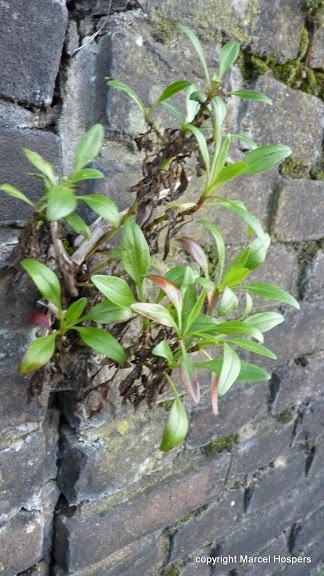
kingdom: Plantae
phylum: Tracheophyta
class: Magnoliopsida
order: Dipsacales
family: Caprifoliaceae
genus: Centranthus
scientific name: Centranthus ruber
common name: Red valerian
